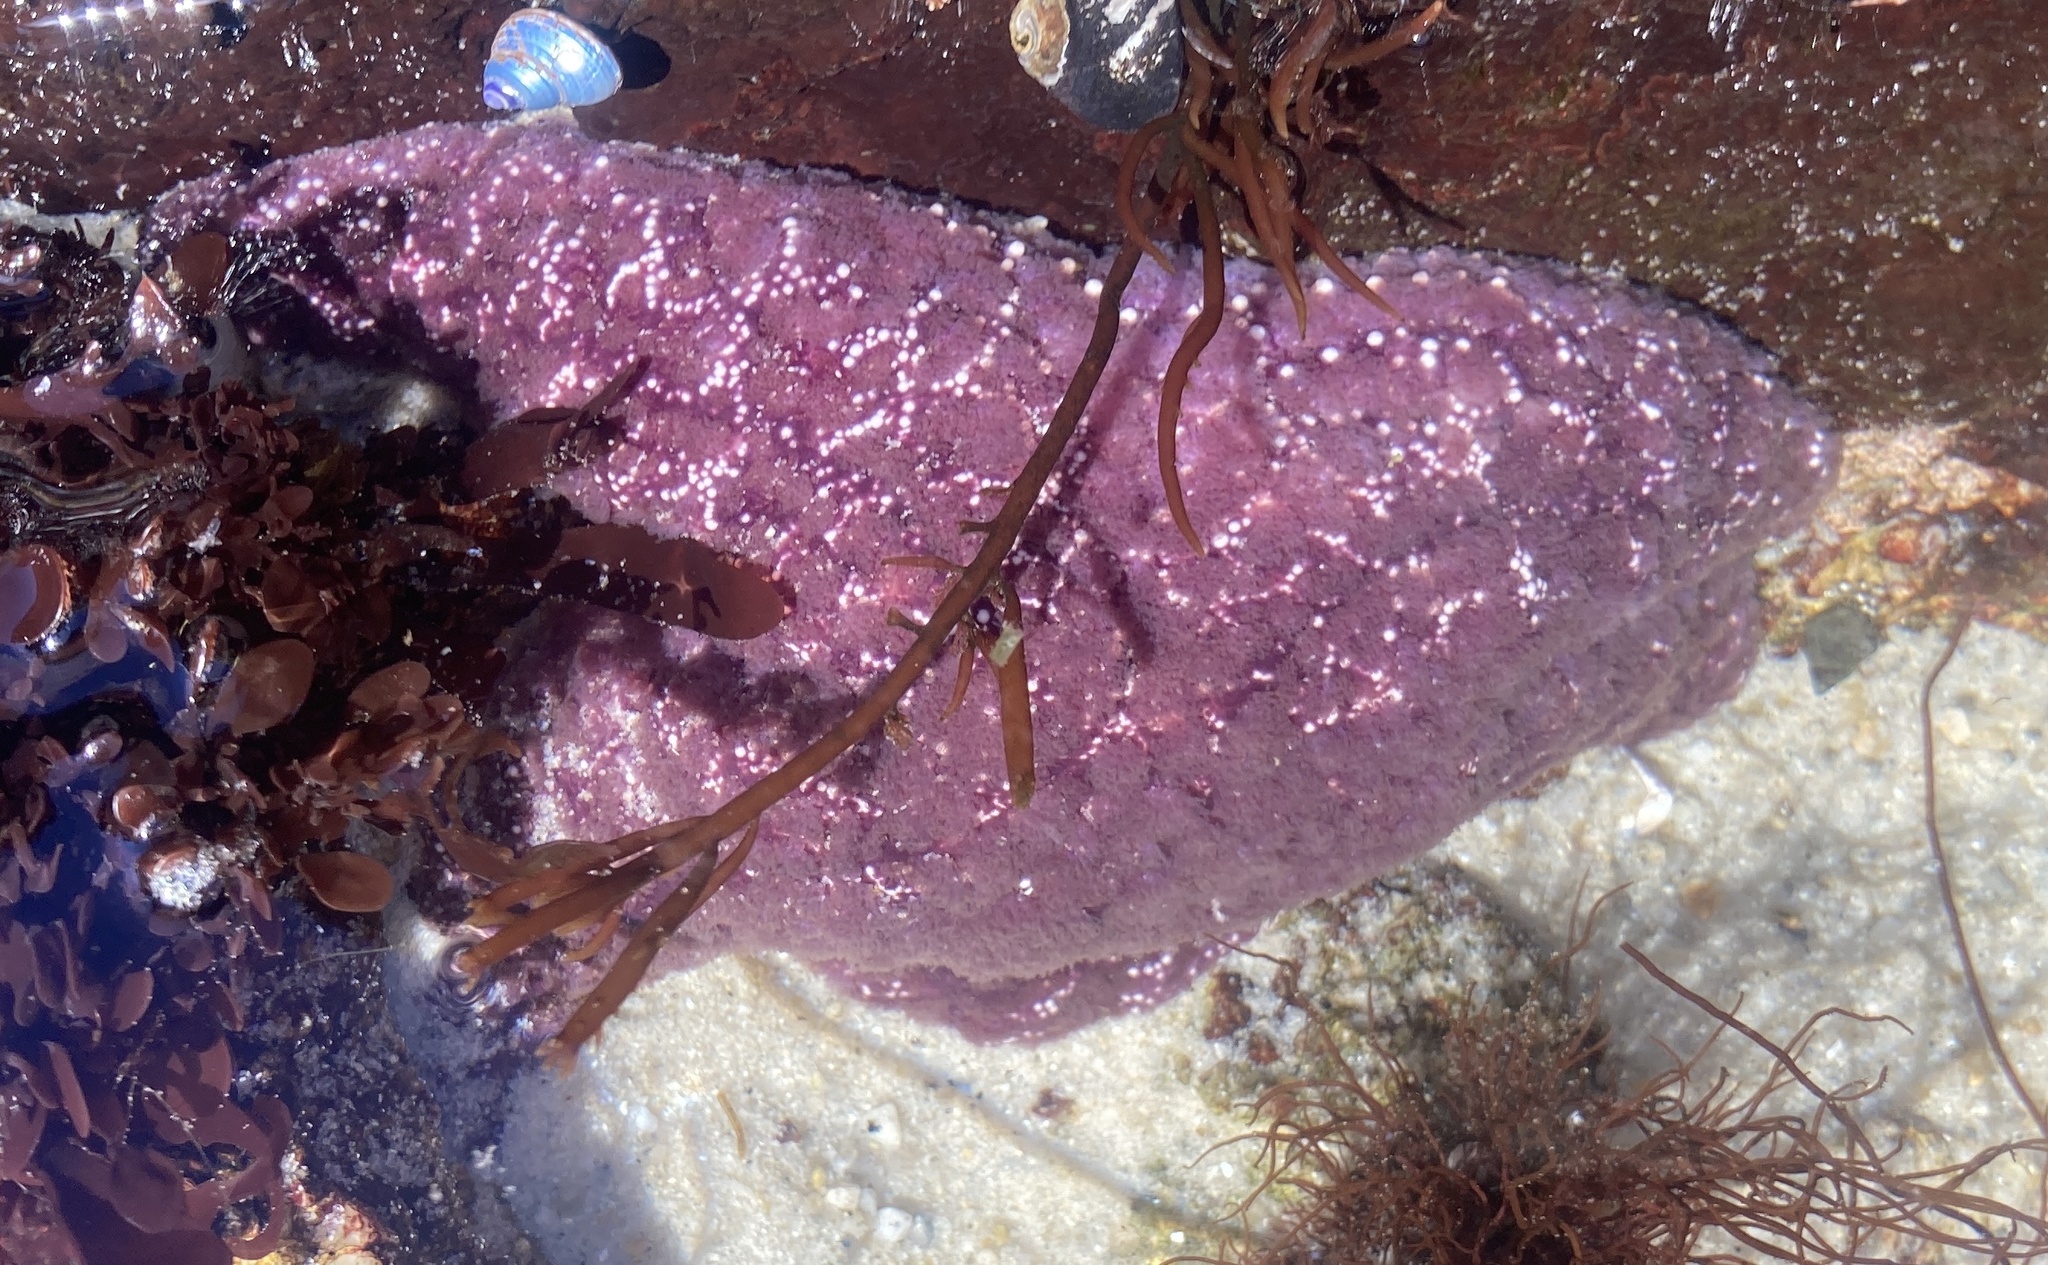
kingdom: Animalia
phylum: Echinodermata
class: Asteroidea
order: Forcipulatida
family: Asteriidae
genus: Pisaster
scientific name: Pisaster ochraceus
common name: Ochre stars
